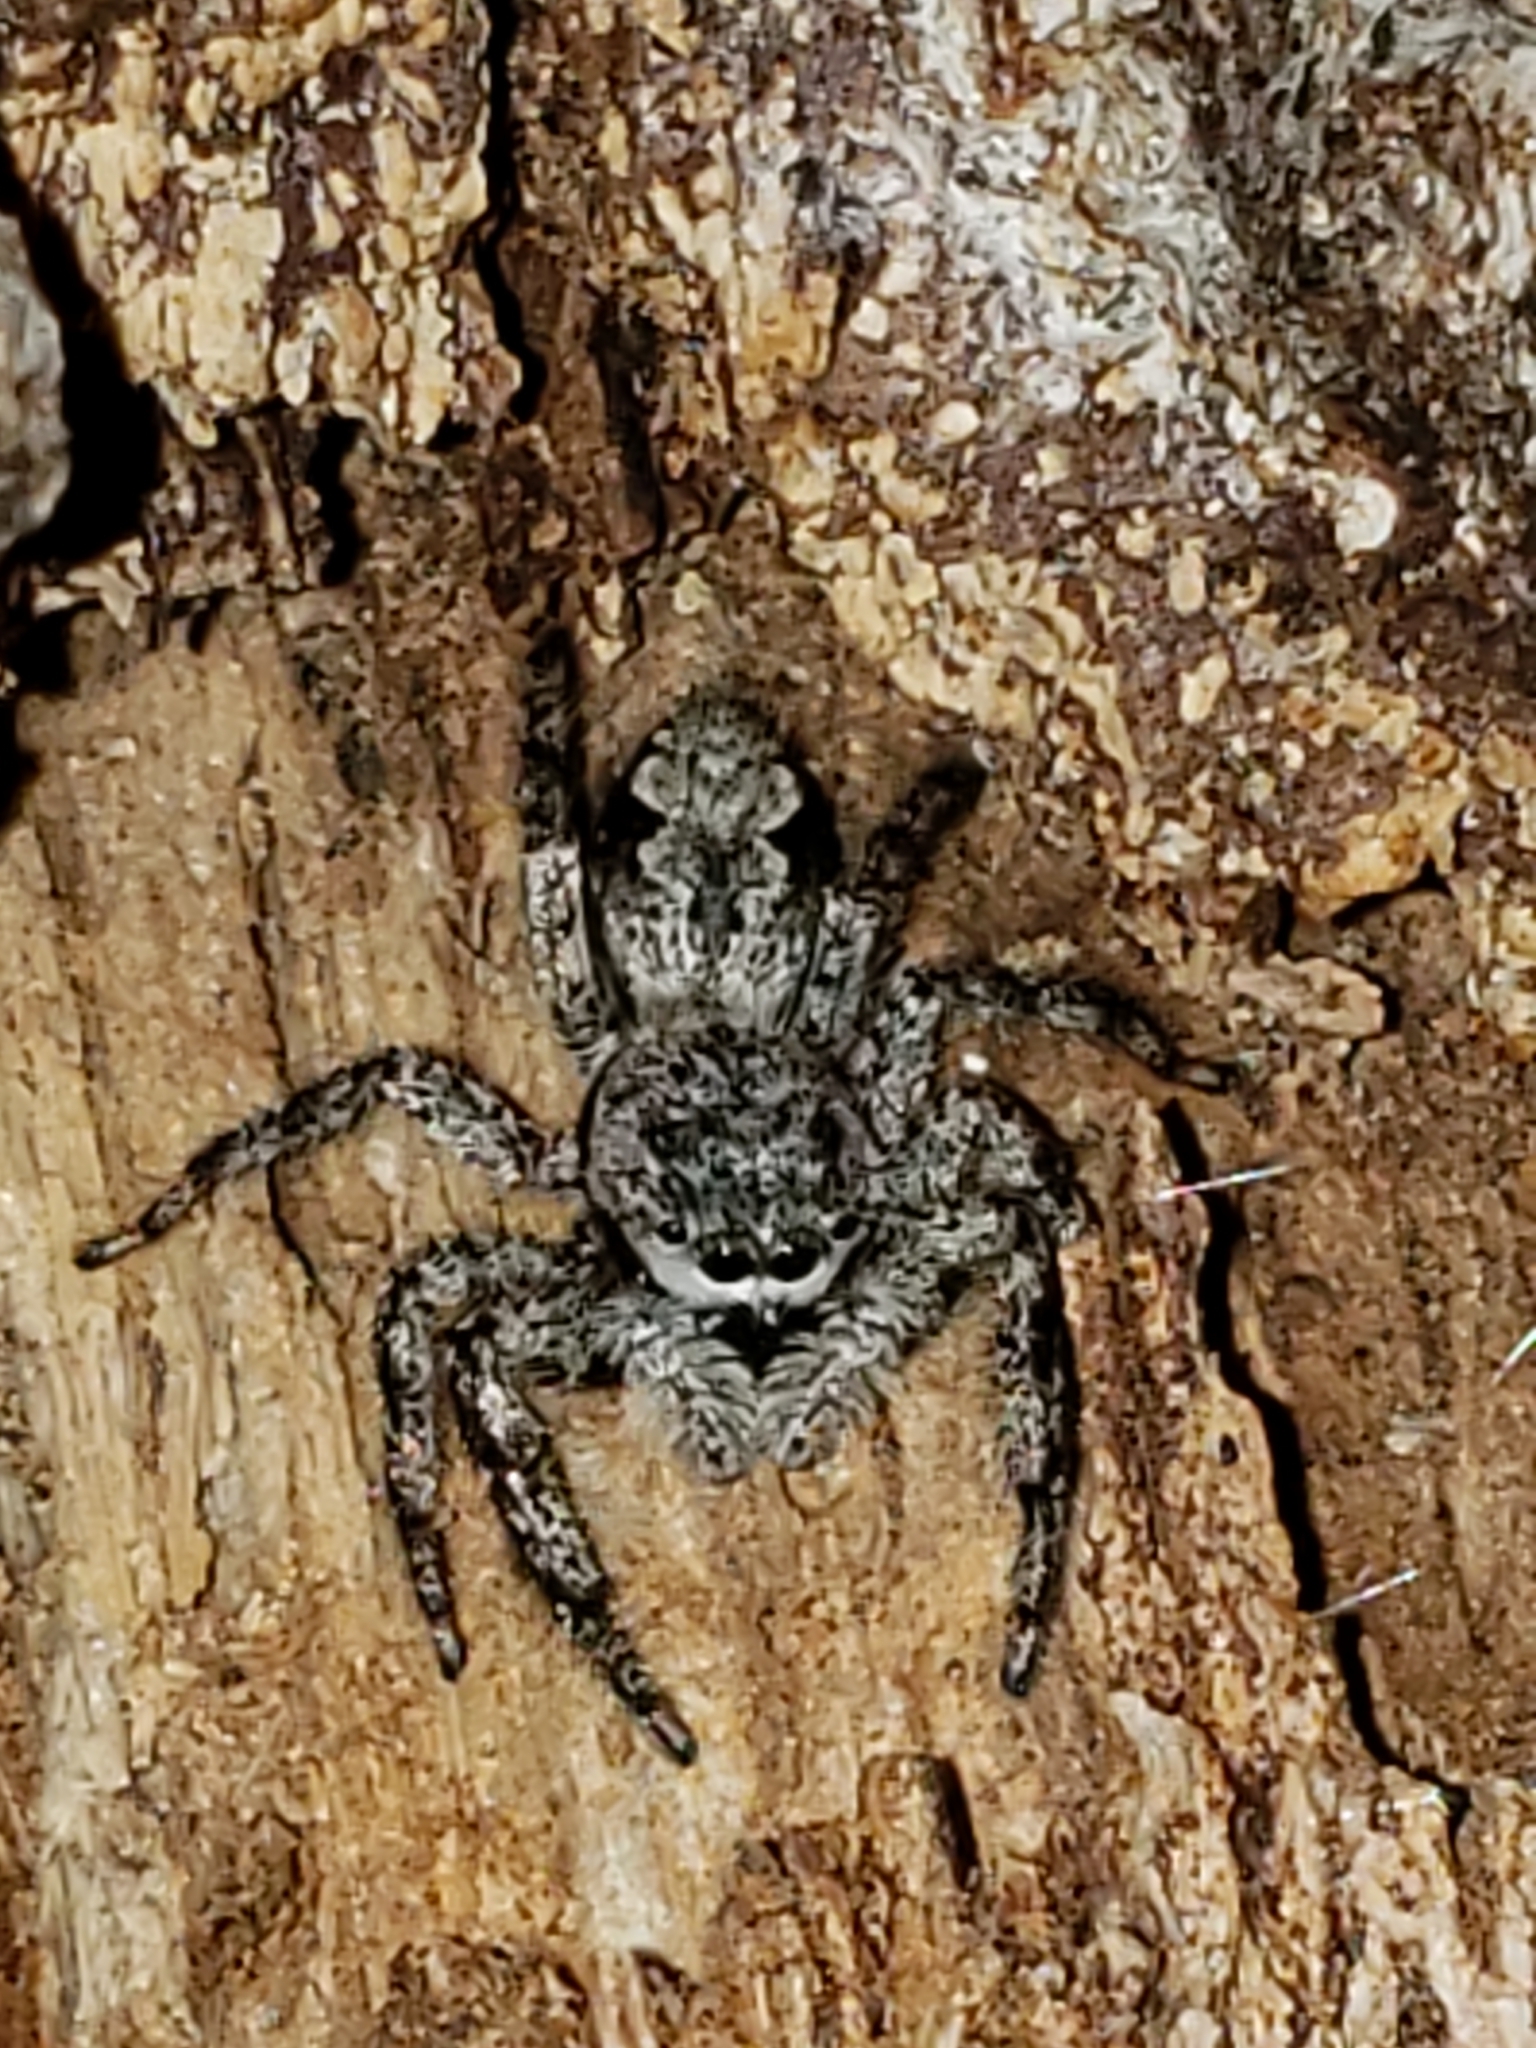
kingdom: Animalia
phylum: Arthropoda
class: Arachnida
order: Araneae
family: Salticidae
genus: Platycryptus
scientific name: Platycryptus undatus
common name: Tan jumping spider
